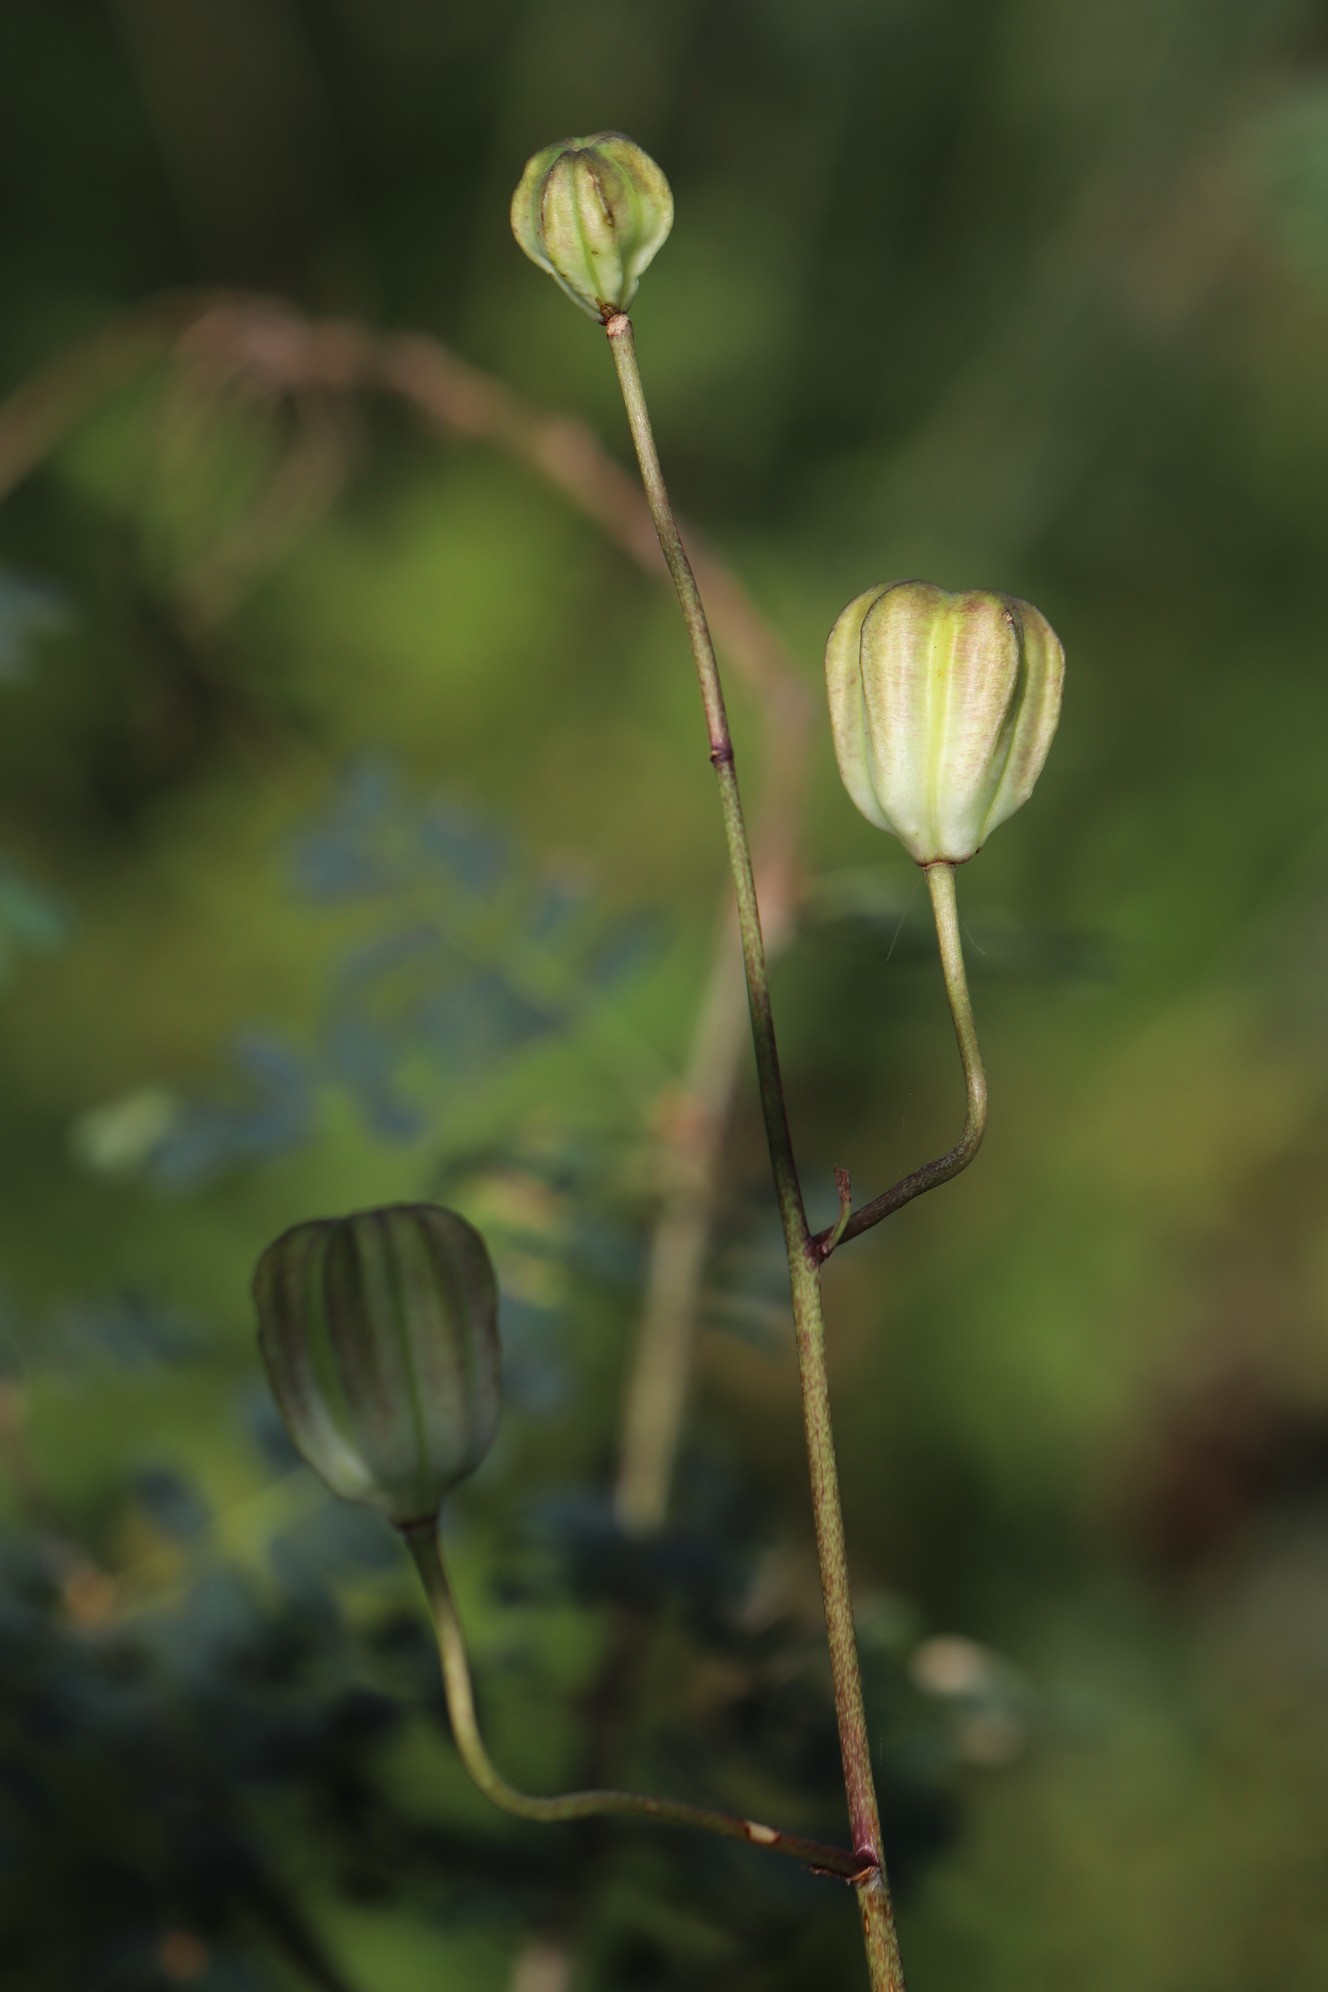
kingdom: Plantae
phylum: Tracheophyta
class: Liliopsida
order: Liliales
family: Liliaceae
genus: Lilium
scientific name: Lilium martagon
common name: Martagon lily
